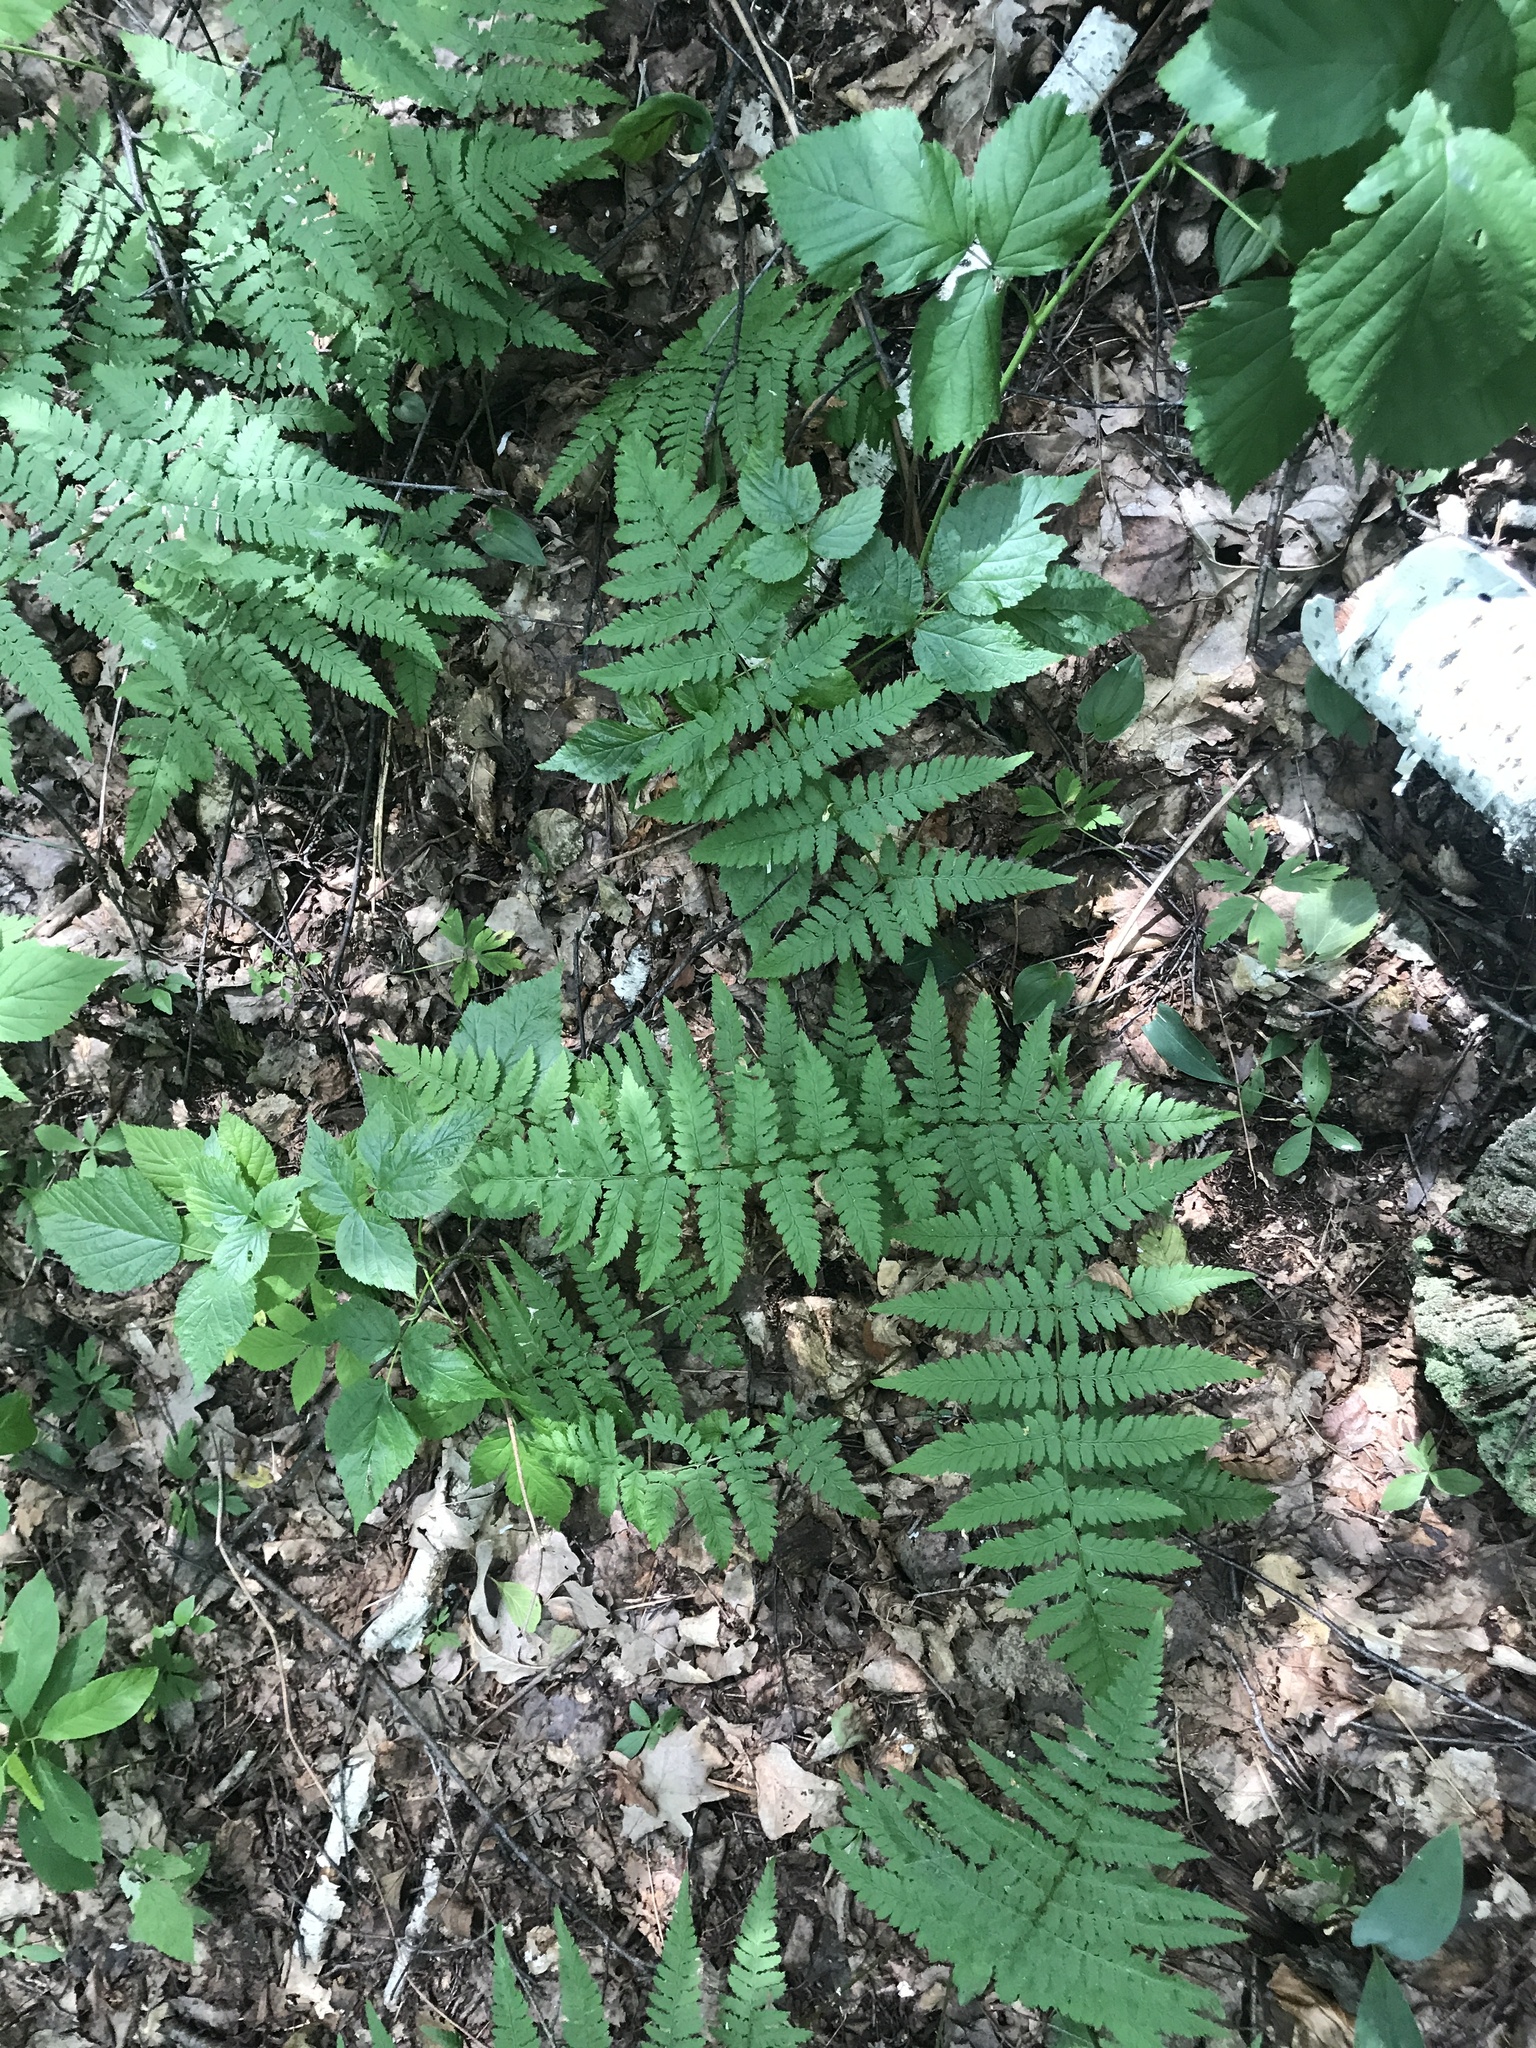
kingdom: Plantae
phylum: Tracheophyta
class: Polypodiopsida
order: Polypodiales
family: Dryopteridaceae
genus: Dryopteris
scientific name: Dryopteris carthusiana
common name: Narrow buckler-fern
